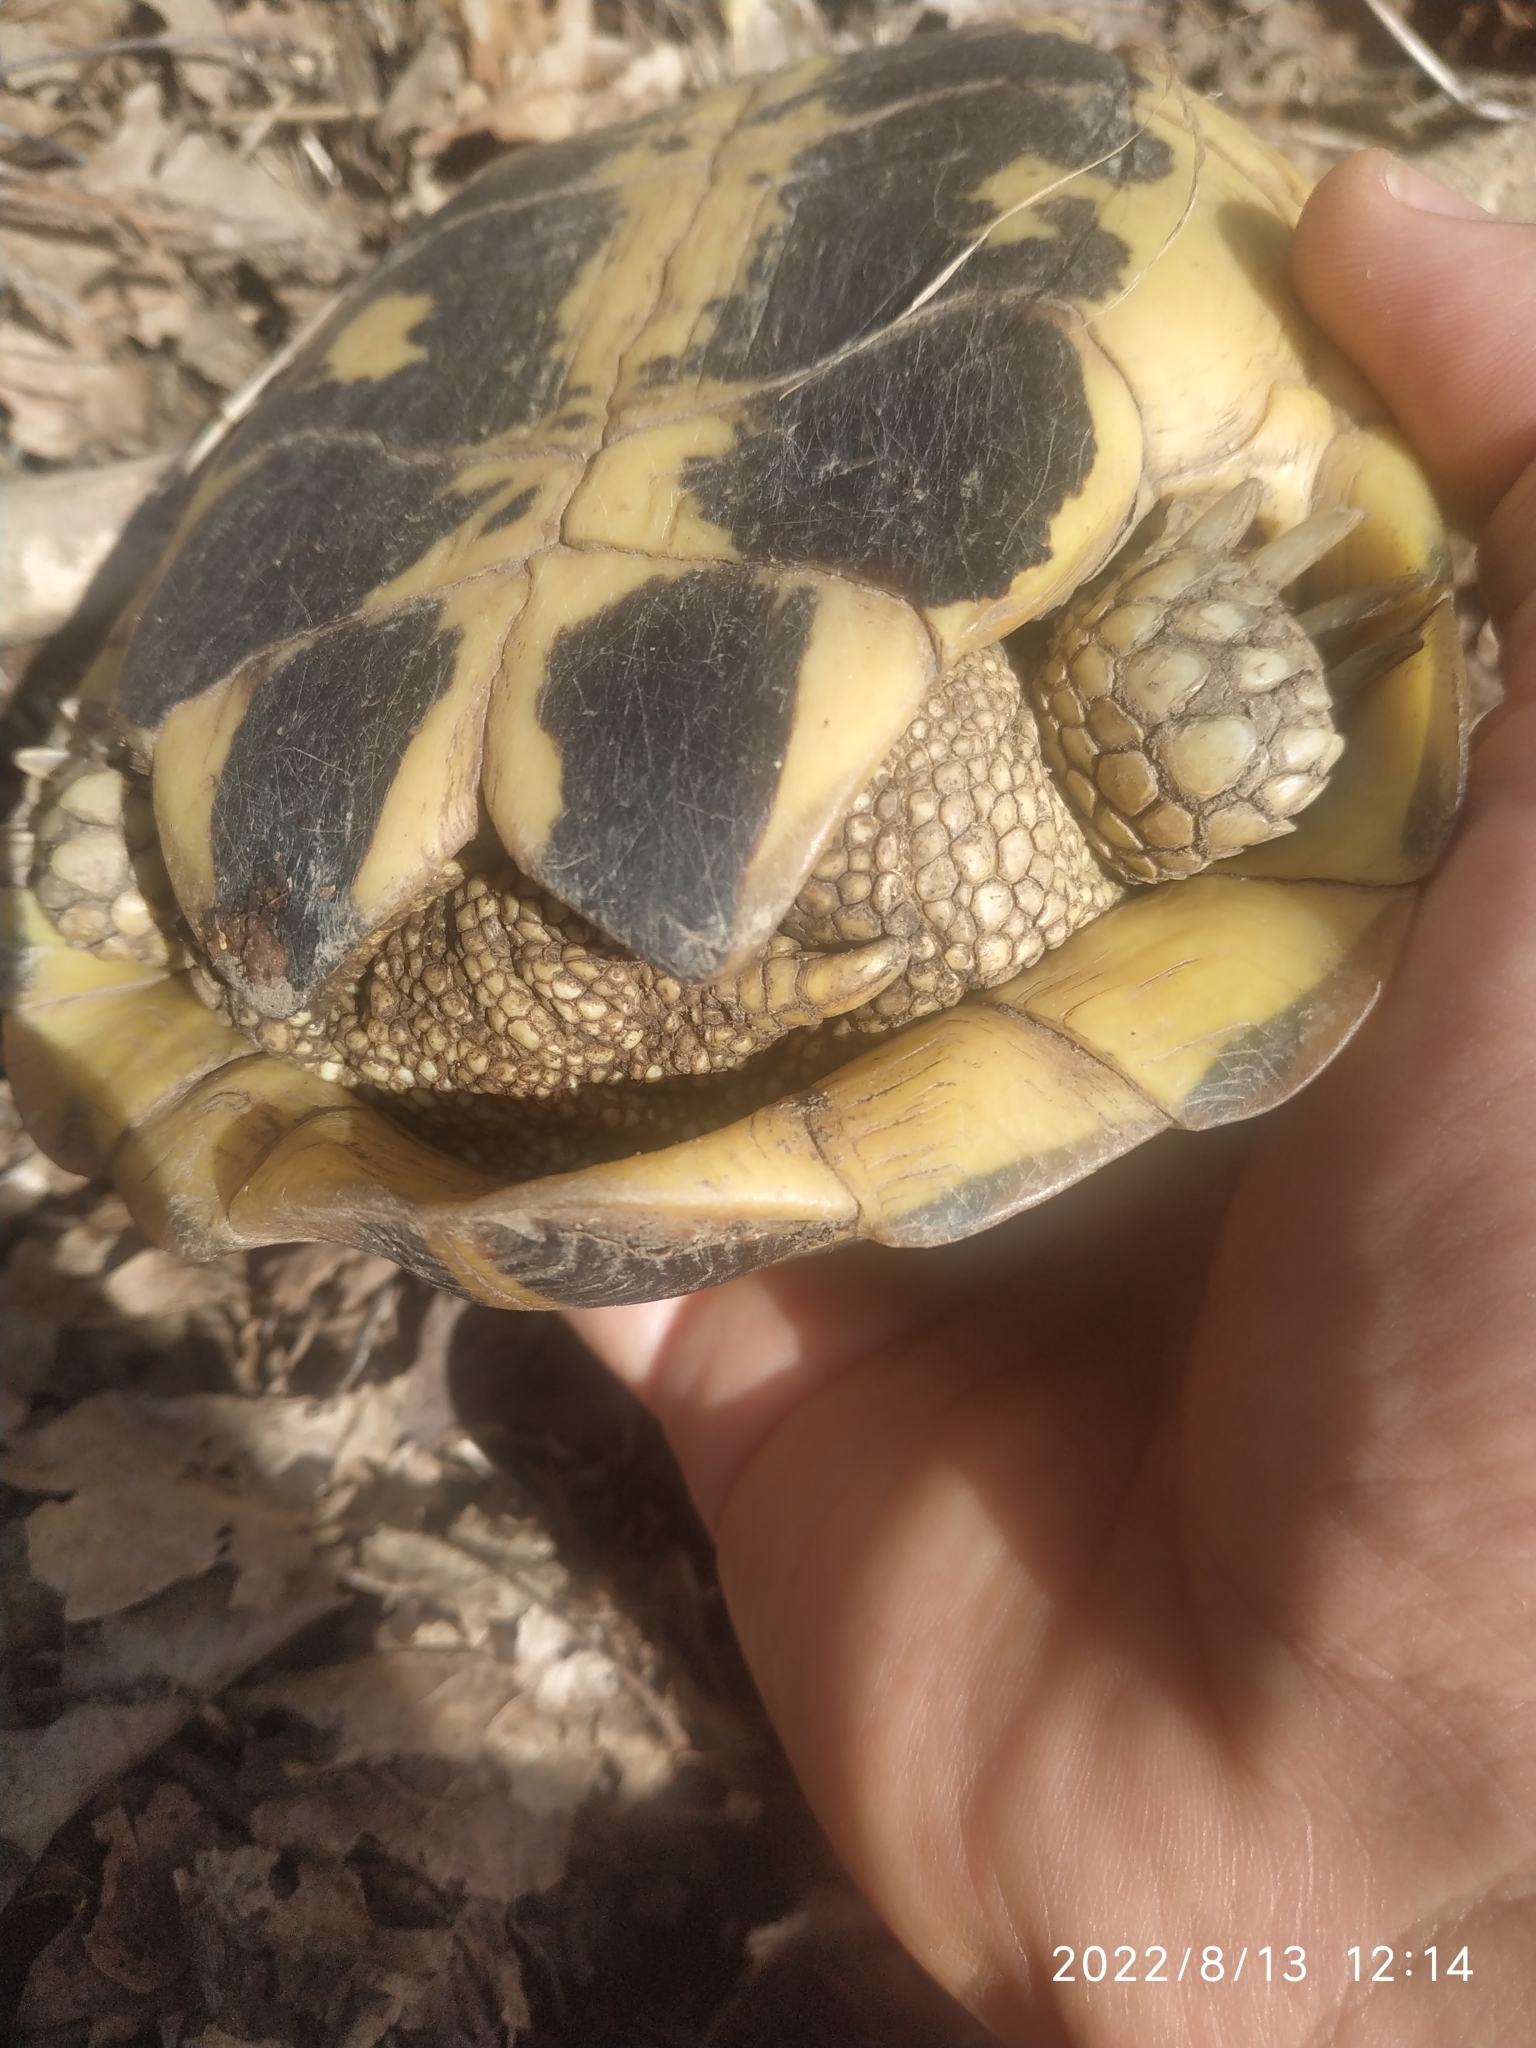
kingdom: Animalia
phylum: Chordata
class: Testudines
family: Testudinidae
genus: Testudo
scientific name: Testudo hermanni
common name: Hermann's tortoise
